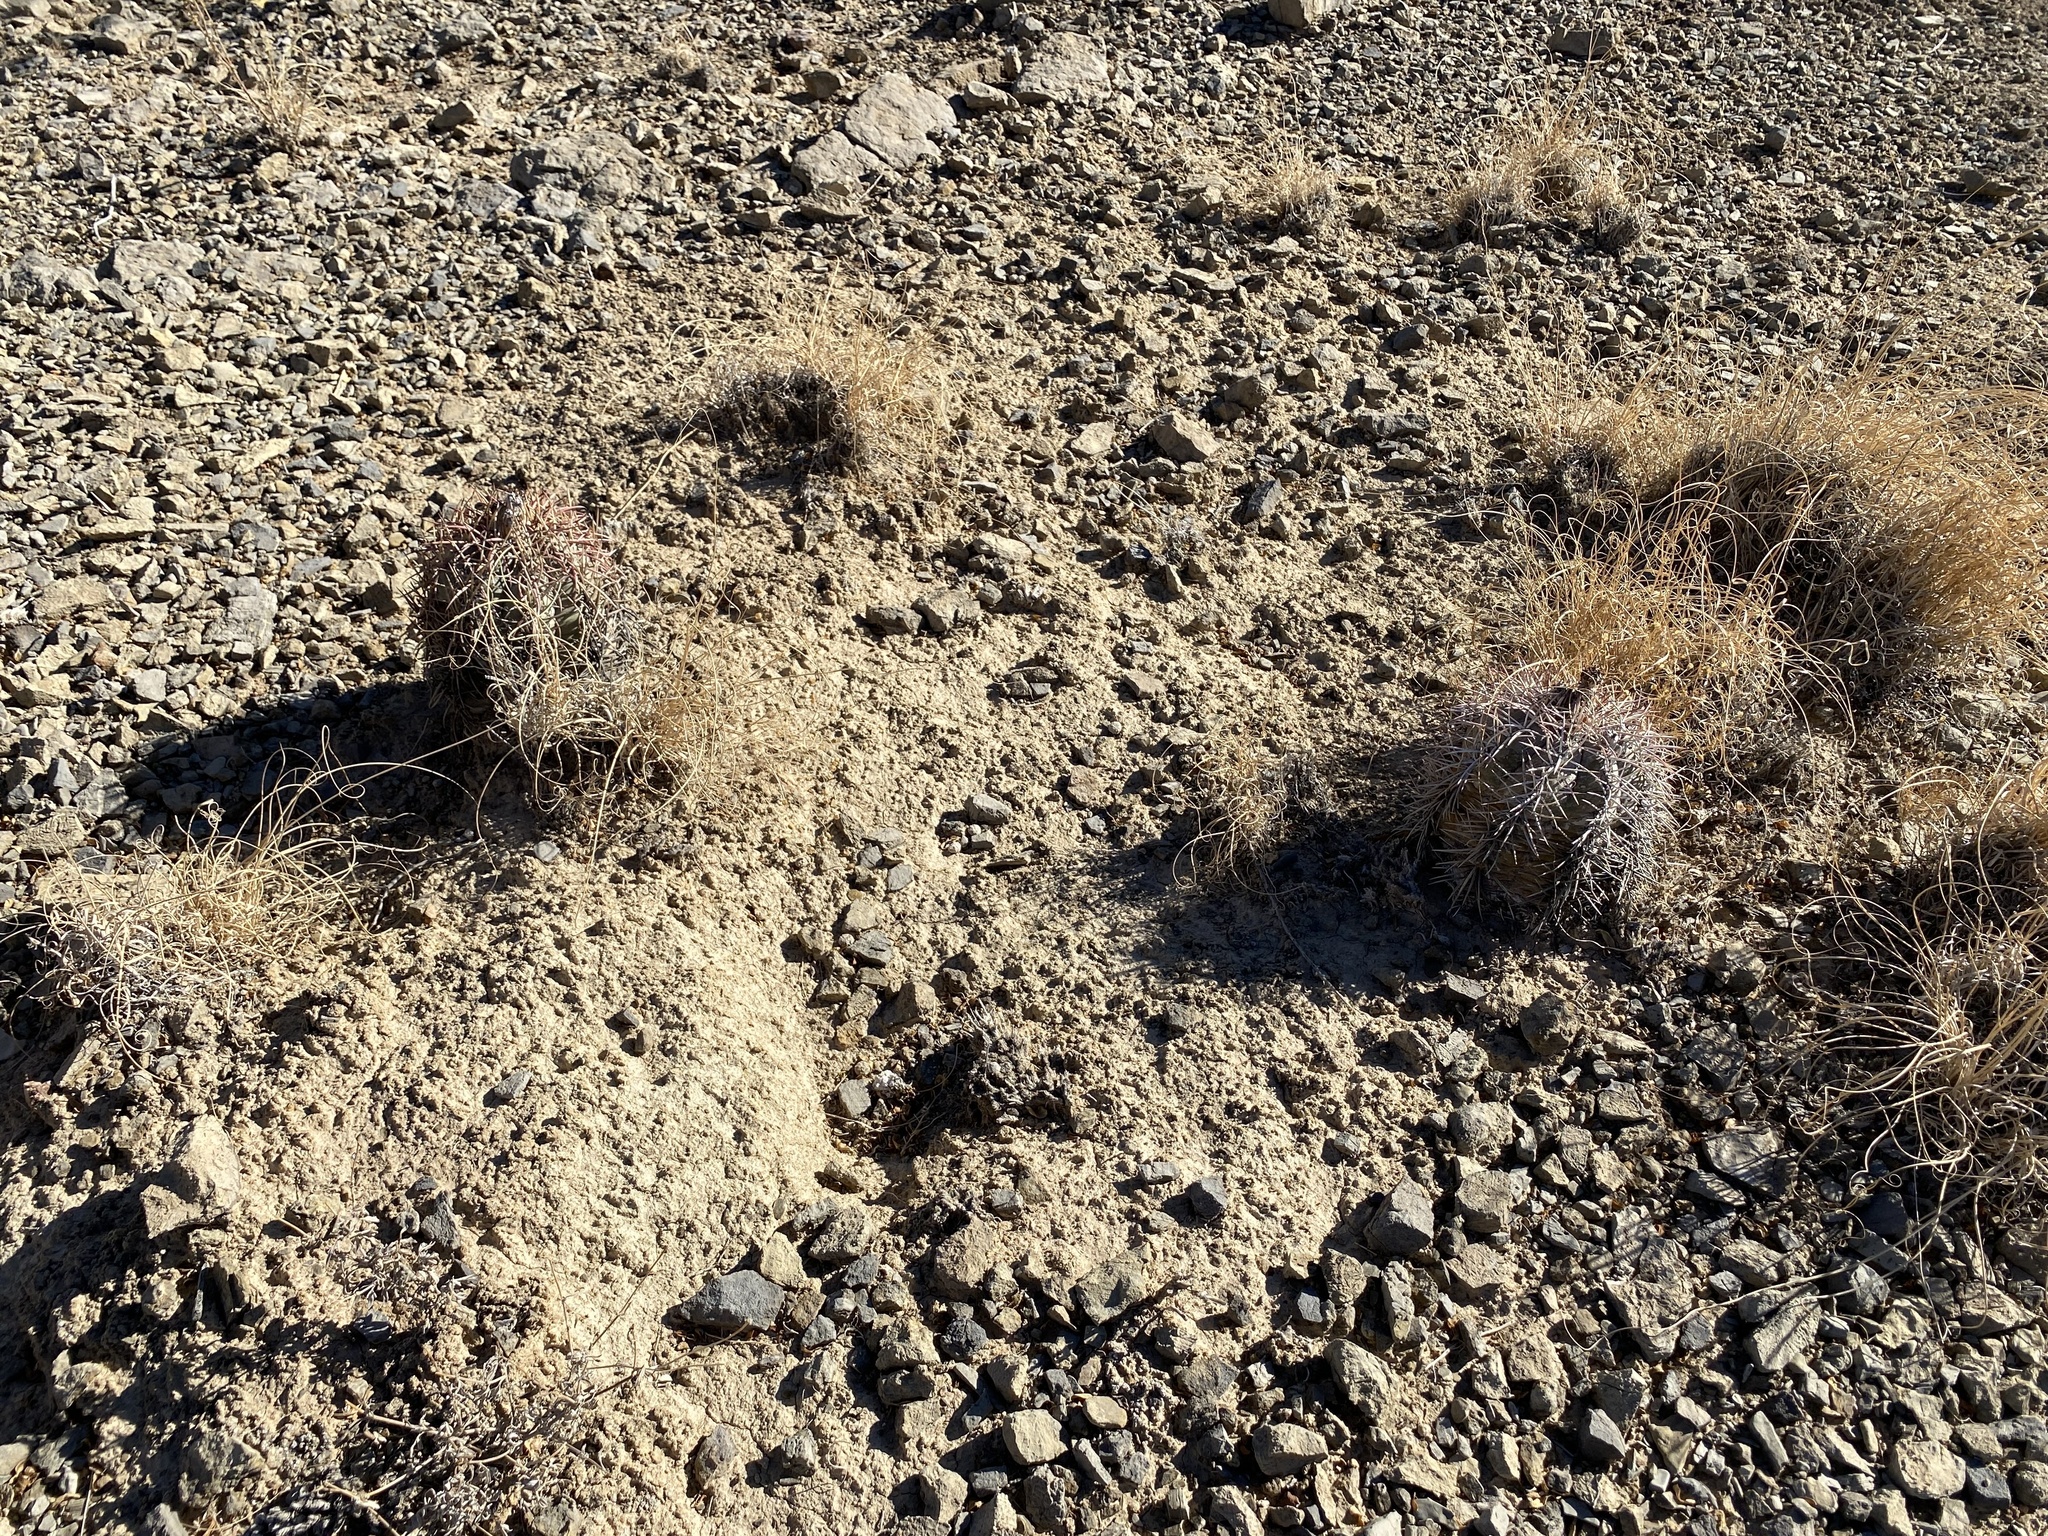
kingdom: Plantae
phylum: Tracheophyta
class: Magnoliopsida
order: Caryophyllales
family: Cactaceae
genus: Echinocactus
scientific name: Echinocactus horizonthalonius
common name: Devilshead
